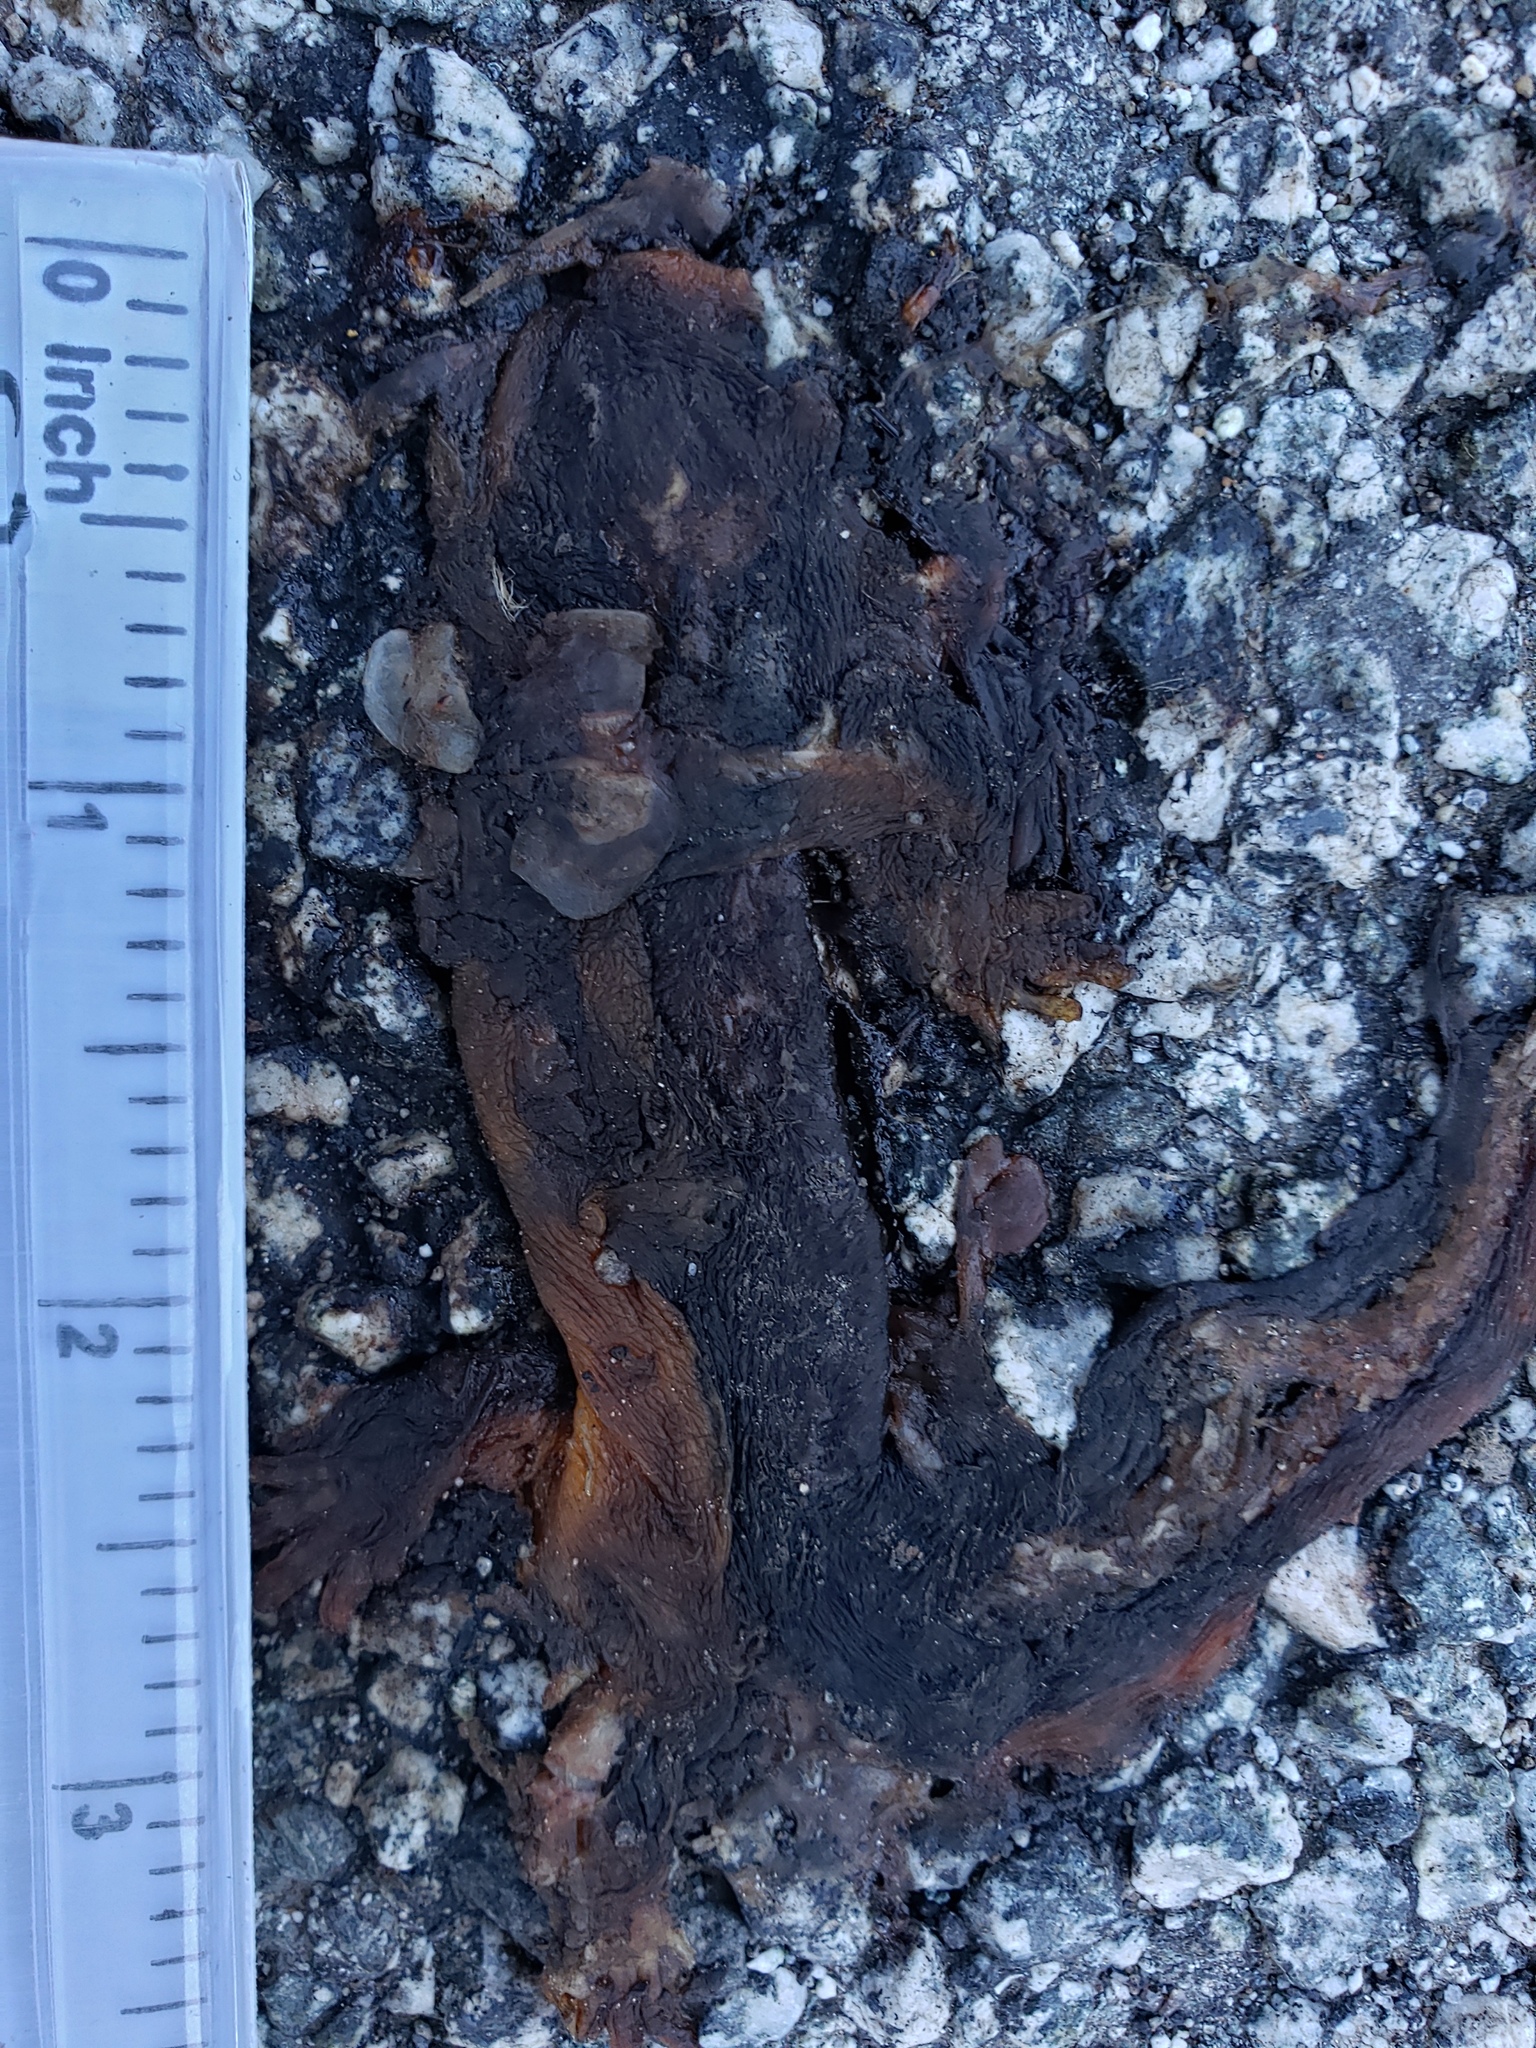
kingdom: Animalia
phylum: Chordata
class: Amphibia
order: Caudata
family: Salamandridae
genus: Taricha
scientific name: Taricha
